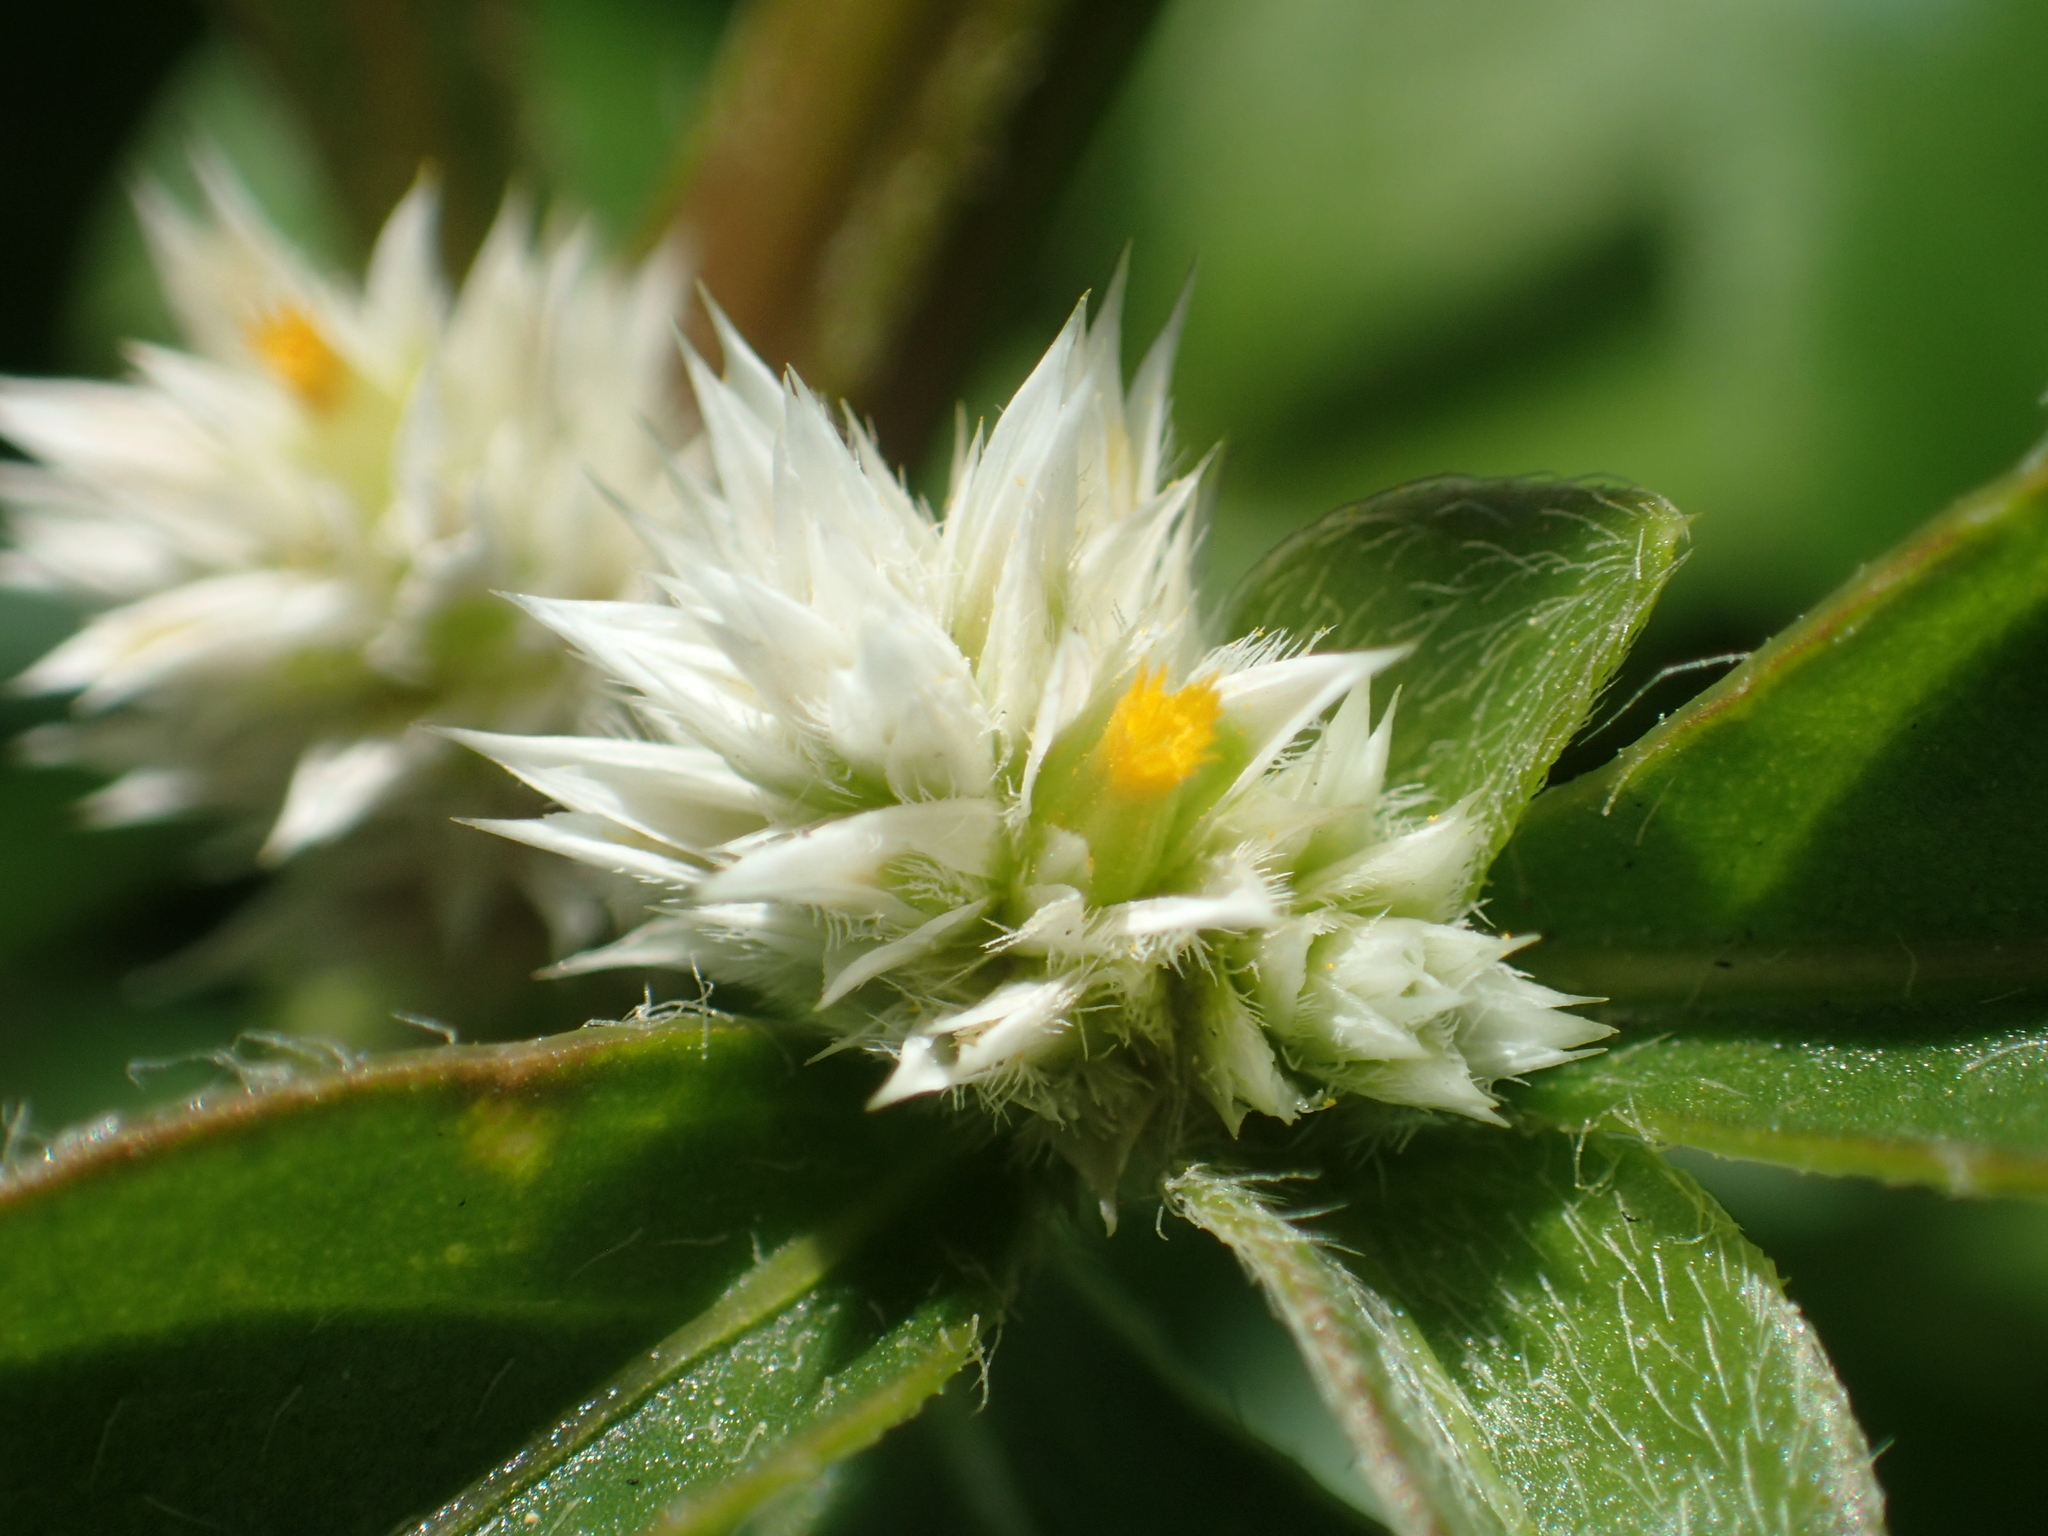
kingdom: Plantae
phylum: Tracheophyta
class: Magnoliopsida
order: Caryophyllales
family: Amaranthaceae
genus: Alternanthera
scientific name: Alternanthera bettzickiana
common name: Calico-plant
